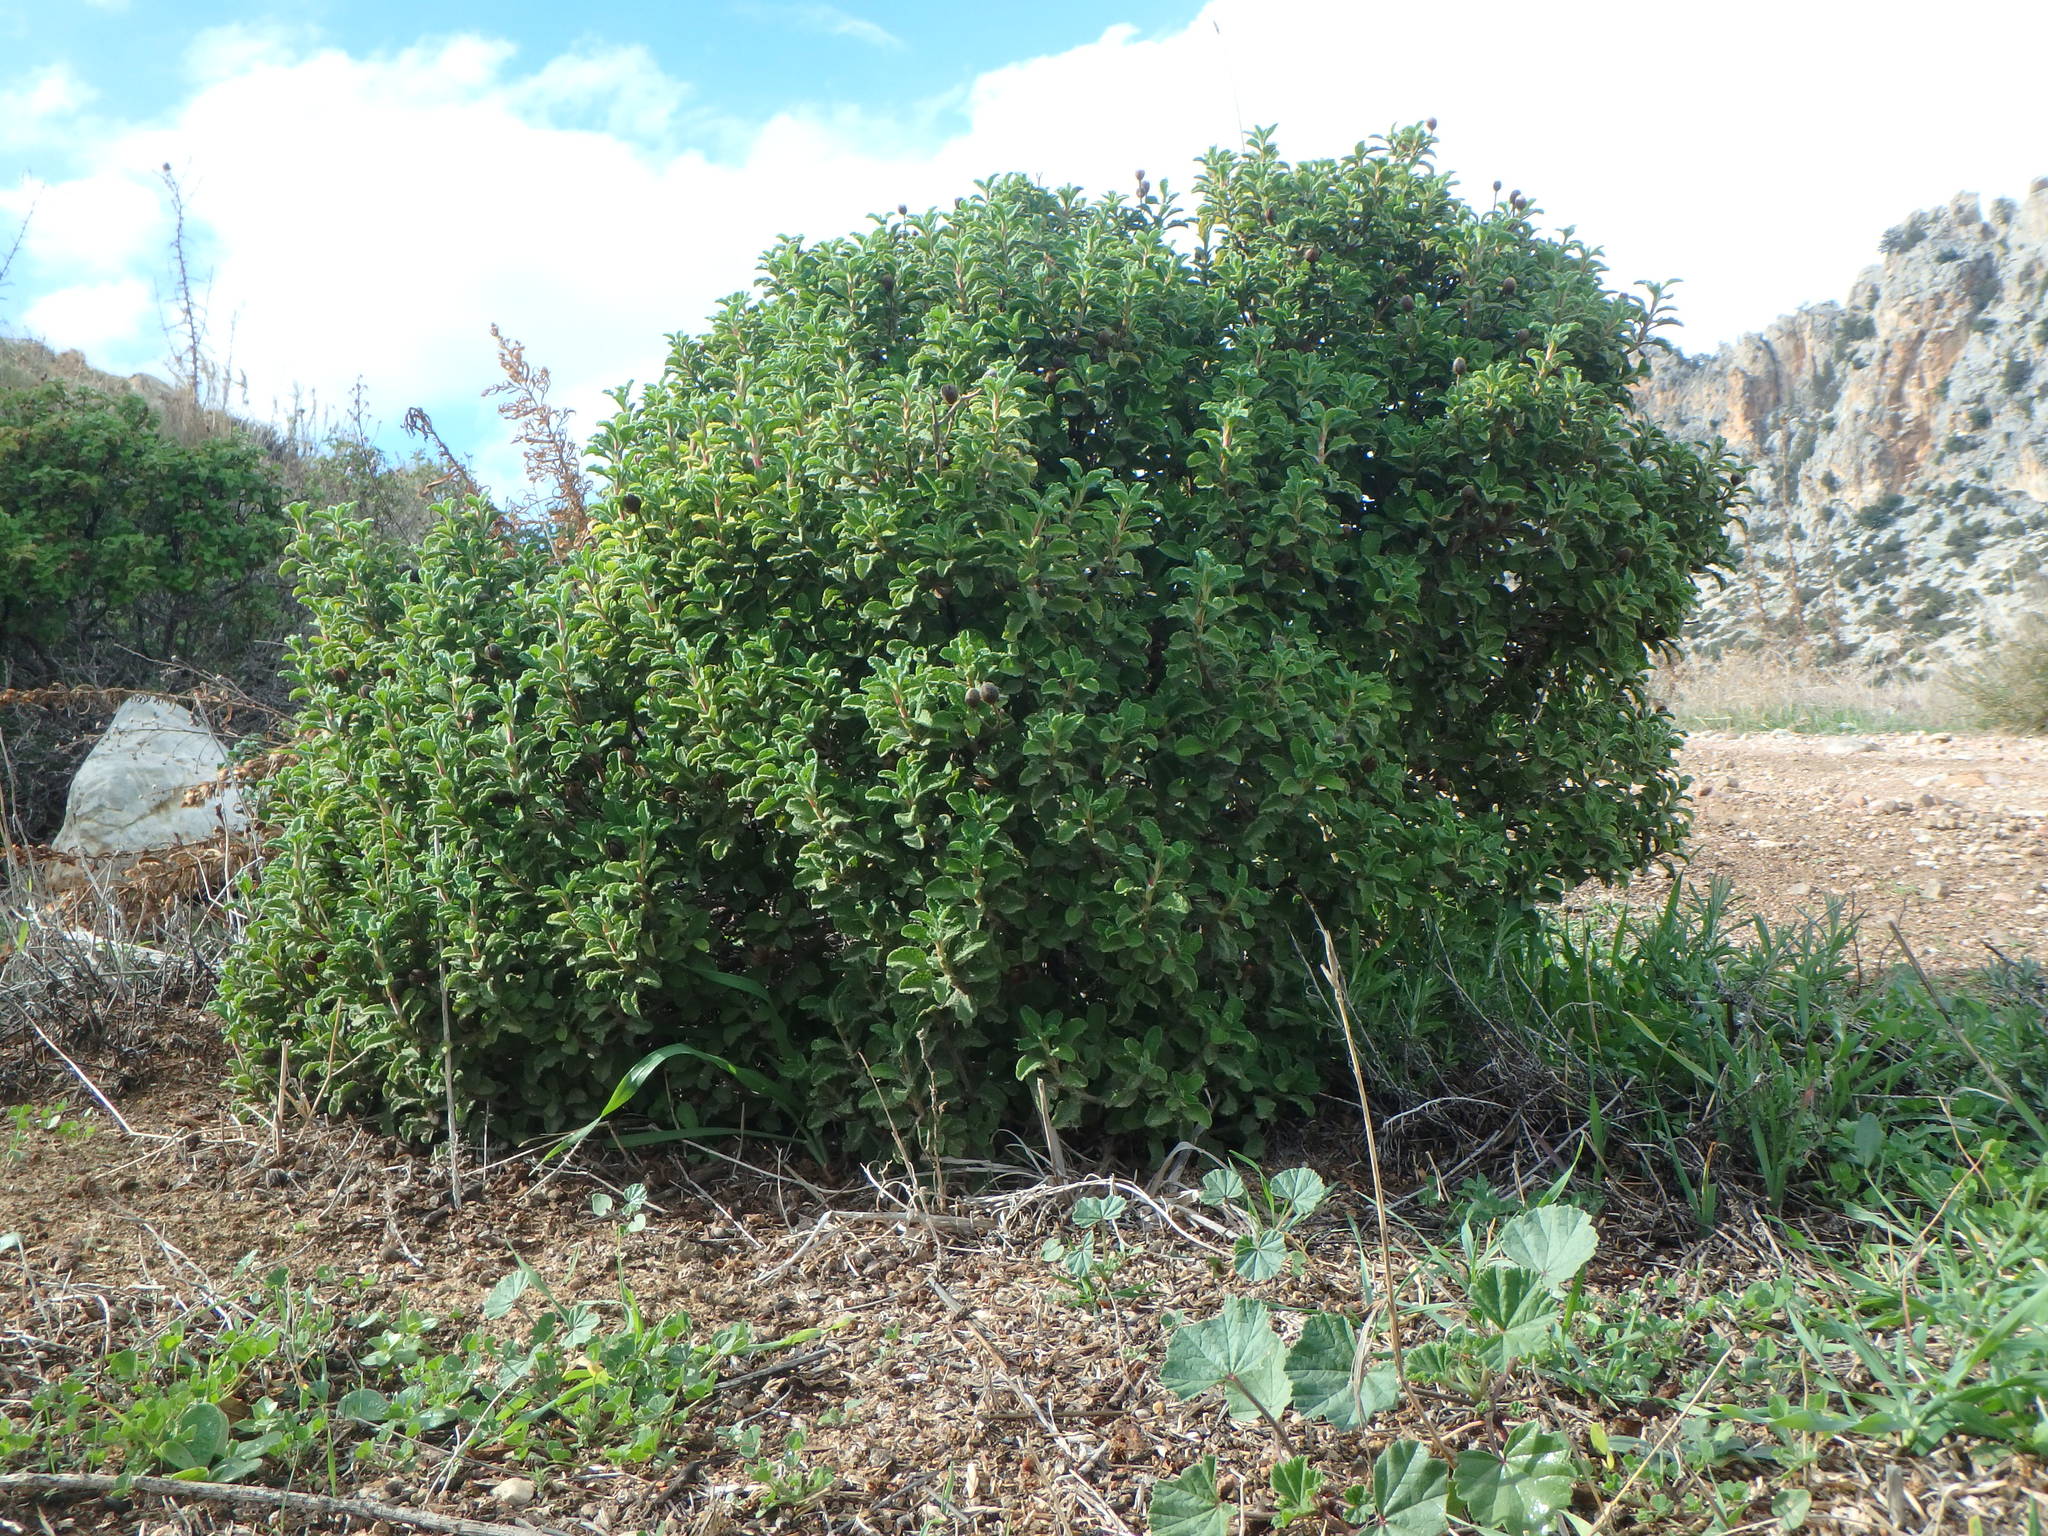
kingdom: Plantae
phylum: Tracheophyta
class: Magnoliopsida
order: Malvales
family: Cistaceae
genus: Cistus
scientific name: Cistus creticus
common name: Cretan rockrose
